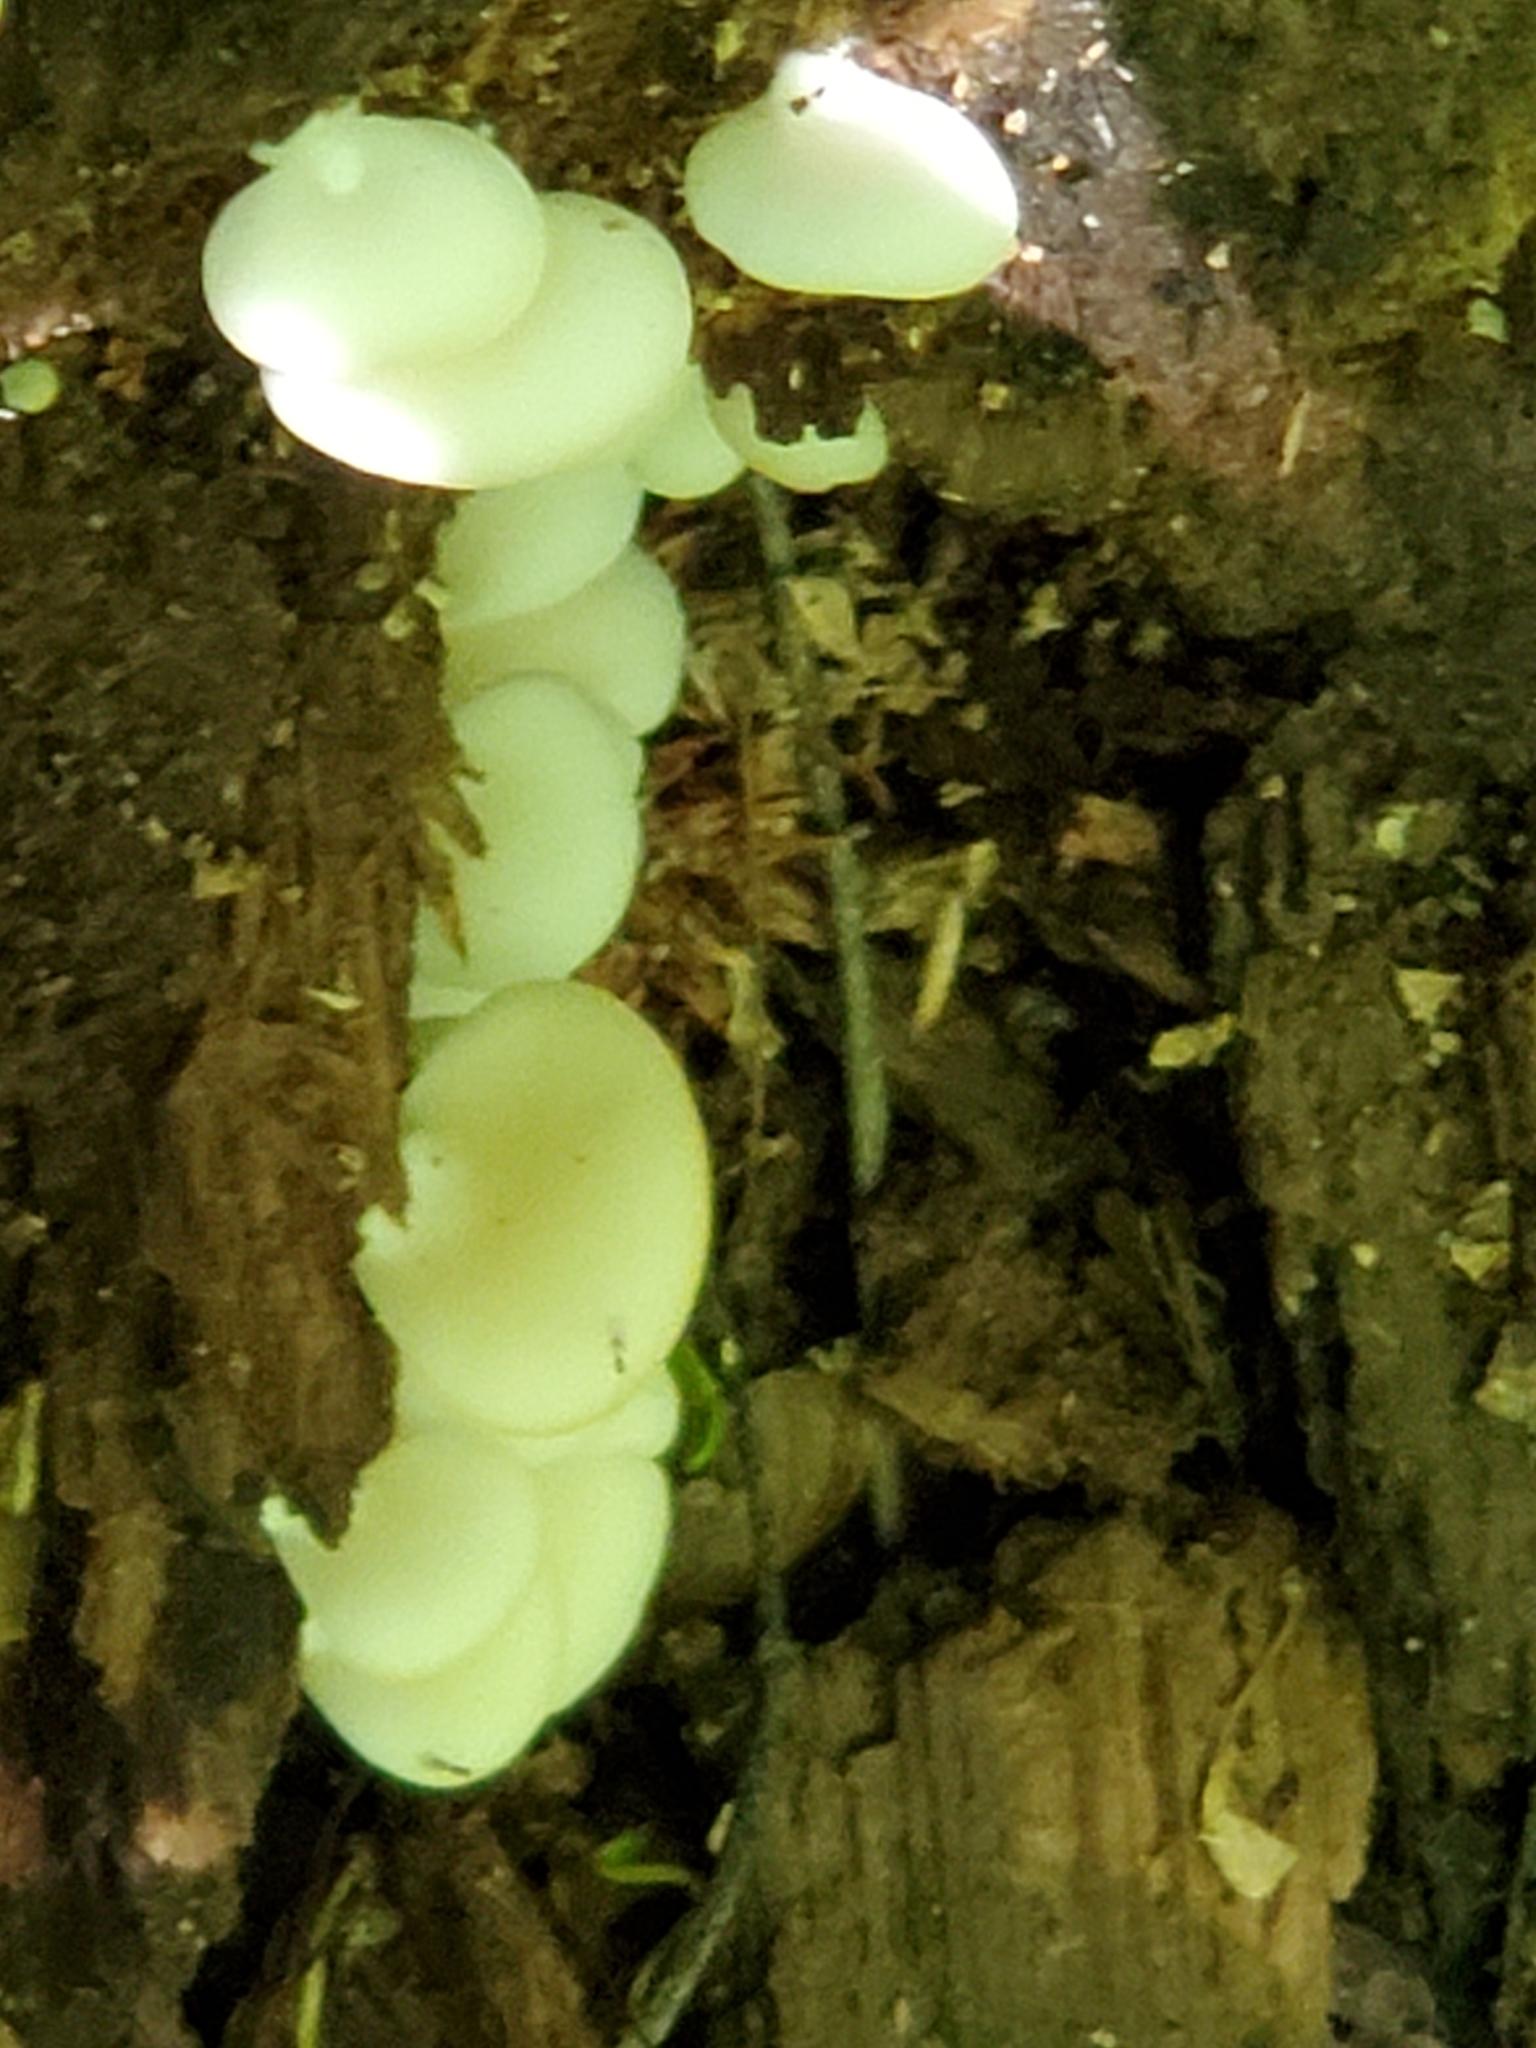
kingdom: Fungi
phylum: Basidiomycota
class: Agaricomycetes
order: Agaricales
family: Crepidotaceae
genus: Crepidotus
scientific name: Crepidotus applanatus
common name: Flat crep
